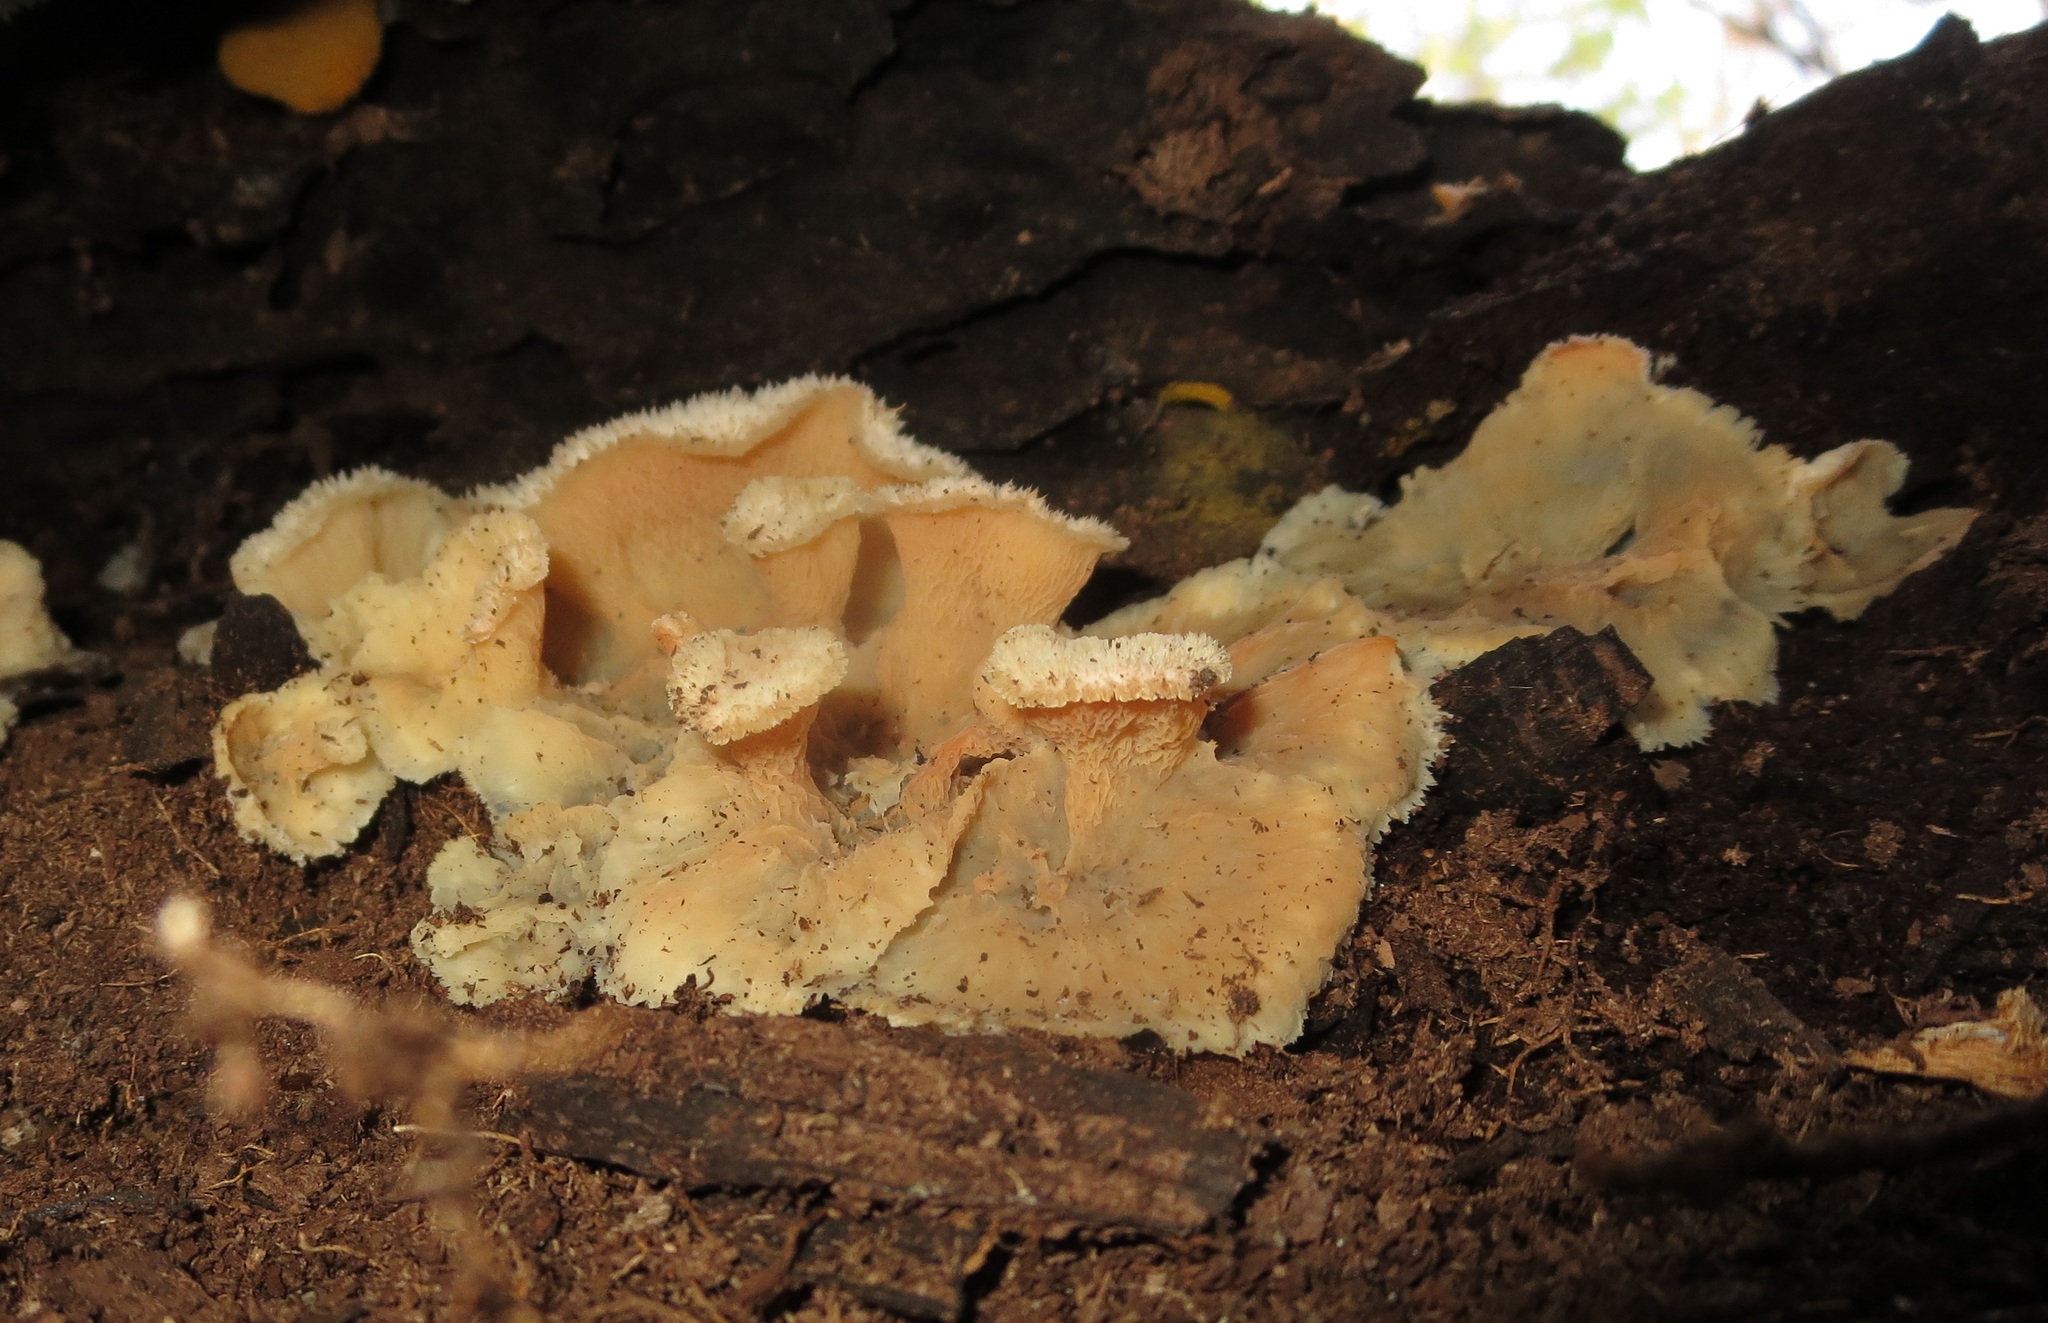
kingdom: Fungi
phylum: Basidiomycota
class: Agaricomycetes
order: Polyporales
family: Meruliaceae
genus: Phlebia
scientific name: Phlebia tremellosa
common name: Jelly rot
